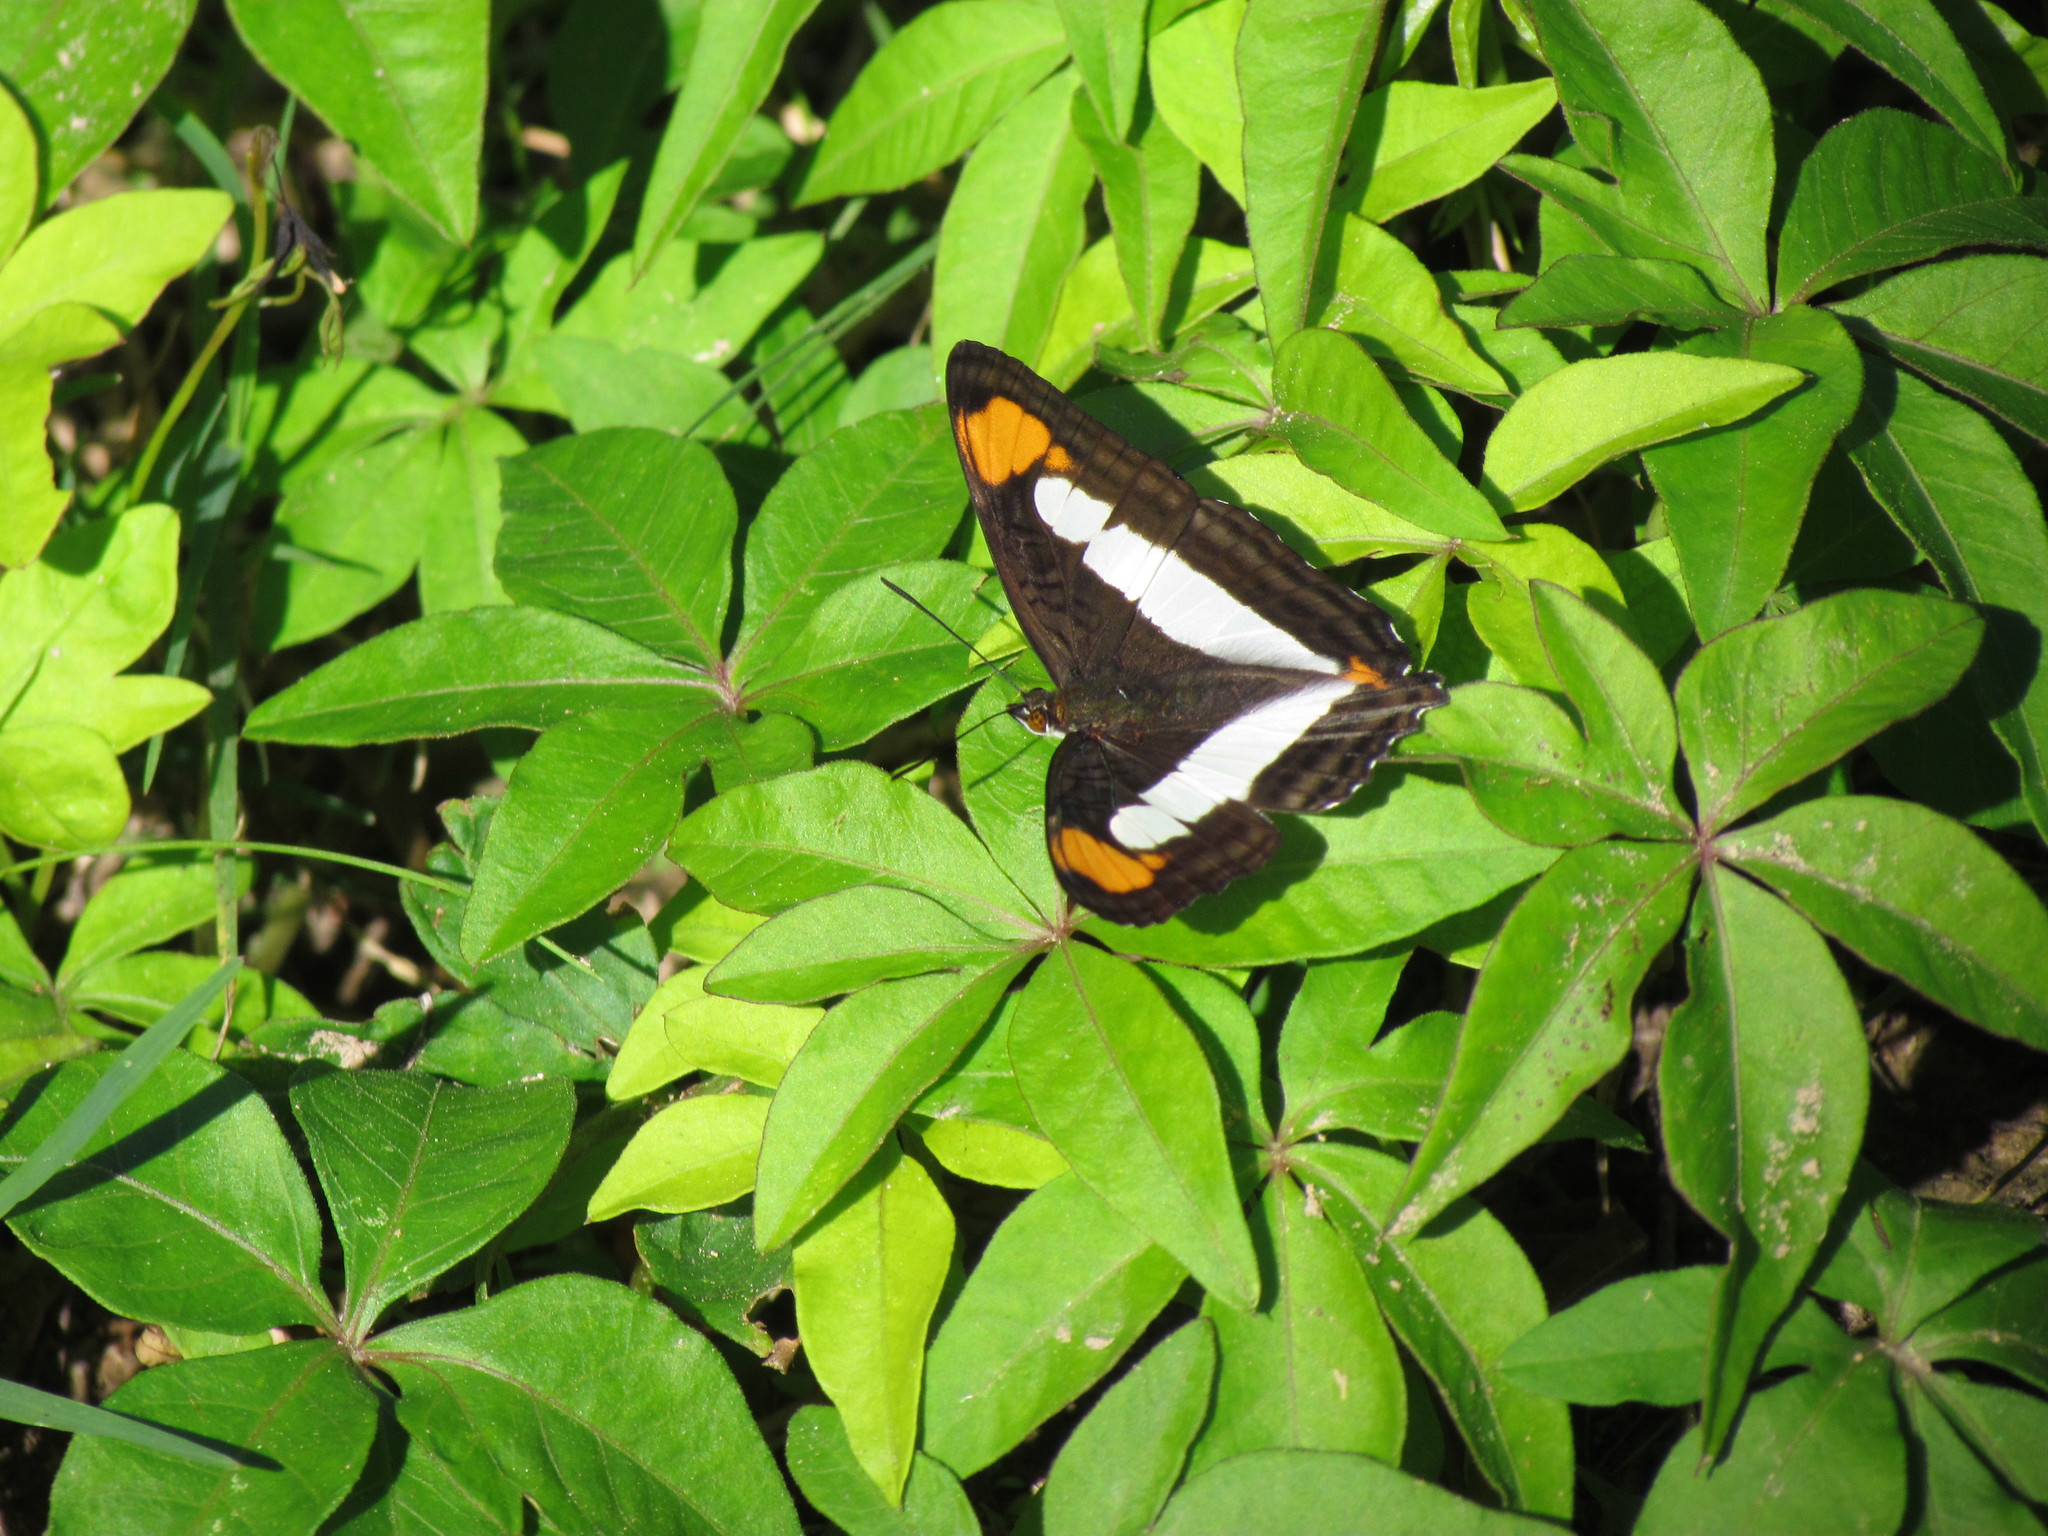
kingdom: Animalia
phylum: Arthropoda
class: Insecta
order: Lepidoptera
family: Nymphalidae
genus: Limenitis
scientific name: Limenitis zea
